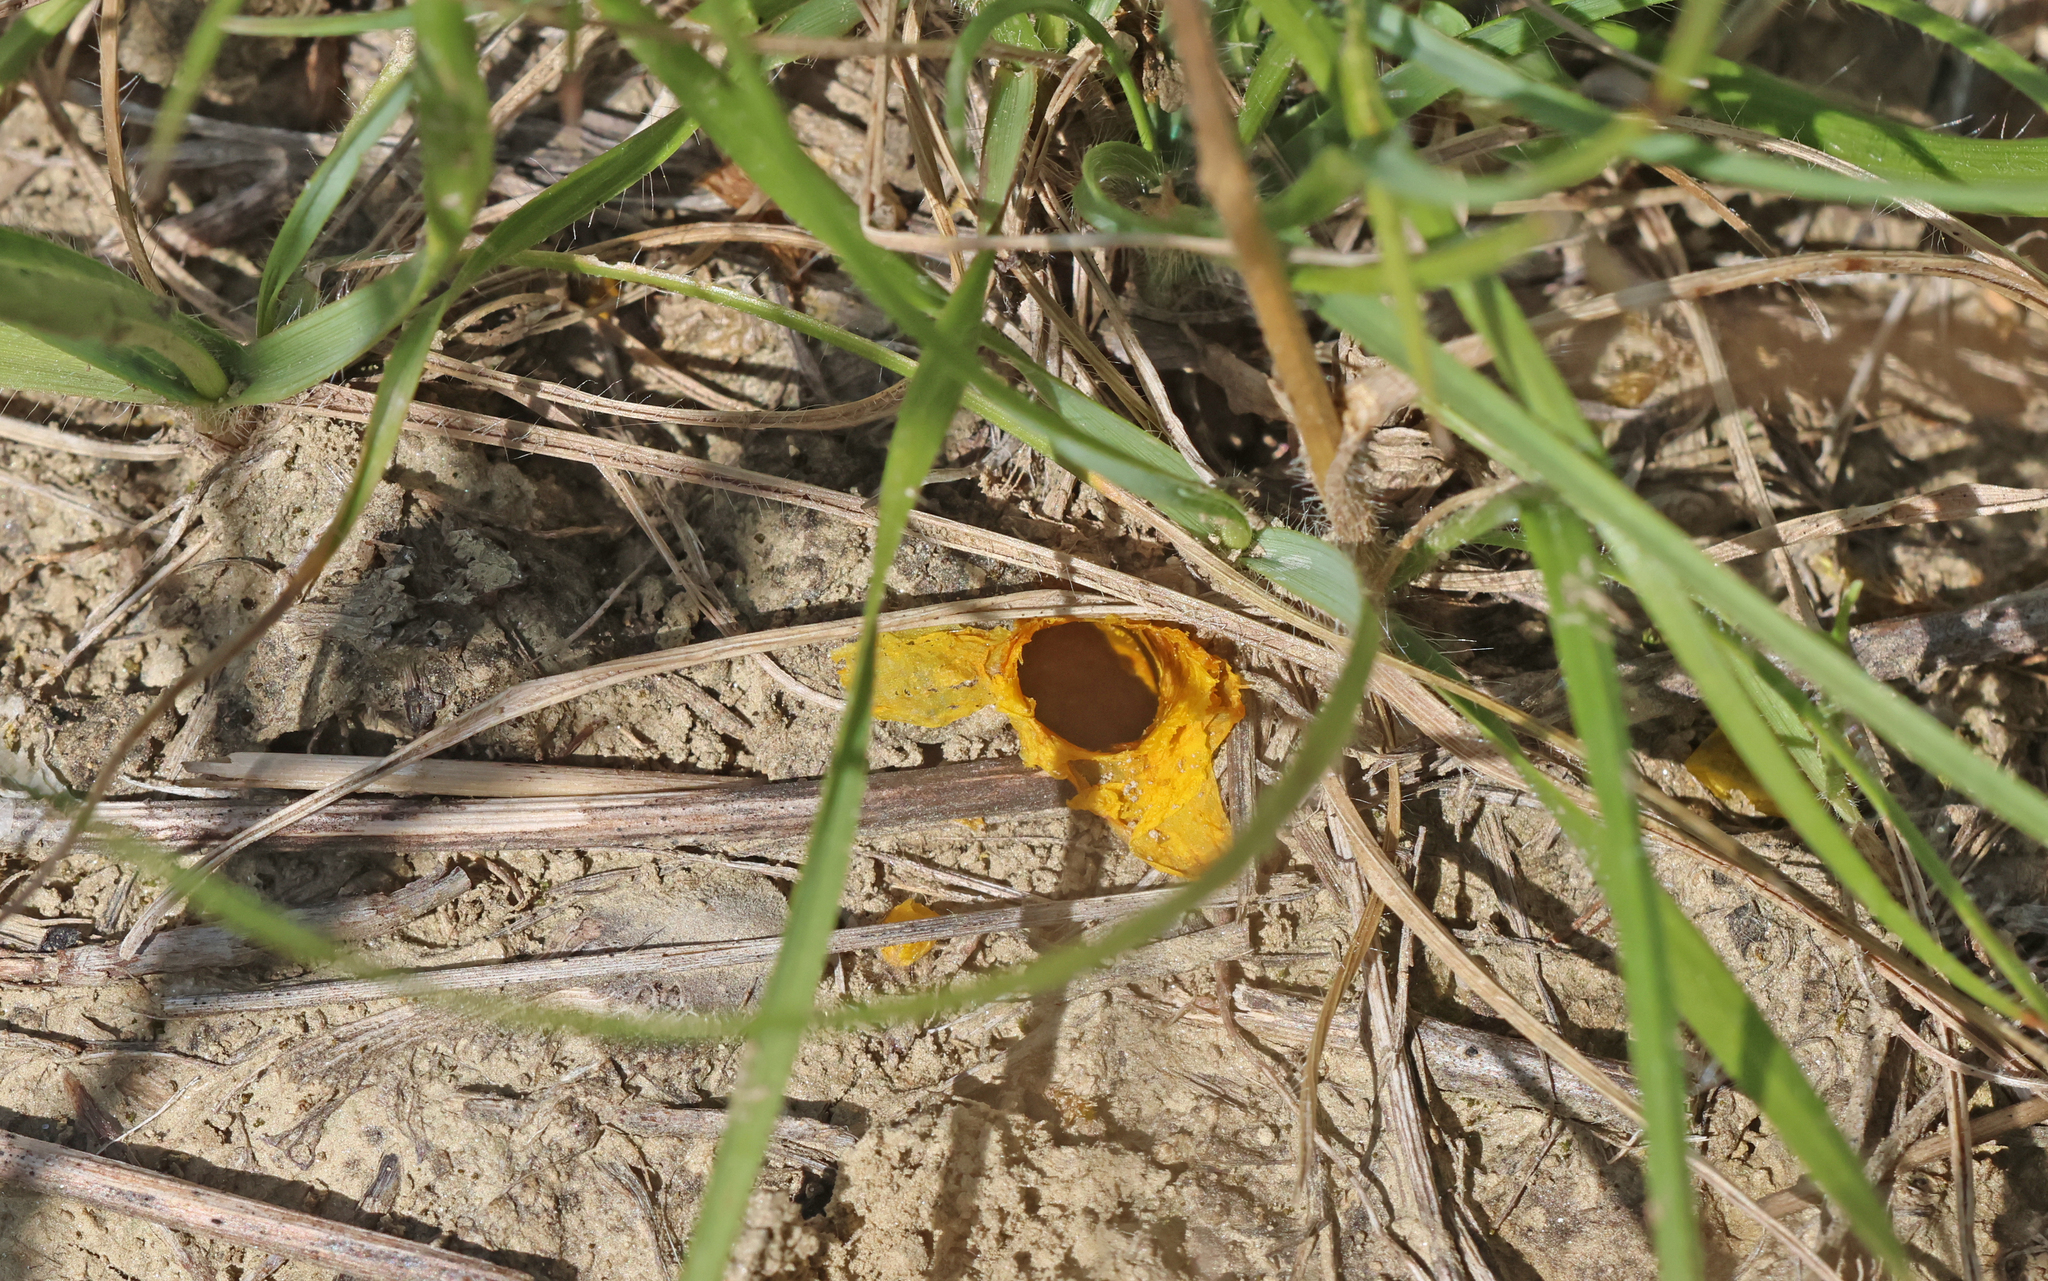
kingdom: Animalia
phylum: Arthropoda
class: Insecta
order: Hymenoptera
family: Megachilidae
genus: Hoplitis
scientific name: Hoplitis mocsaryi
